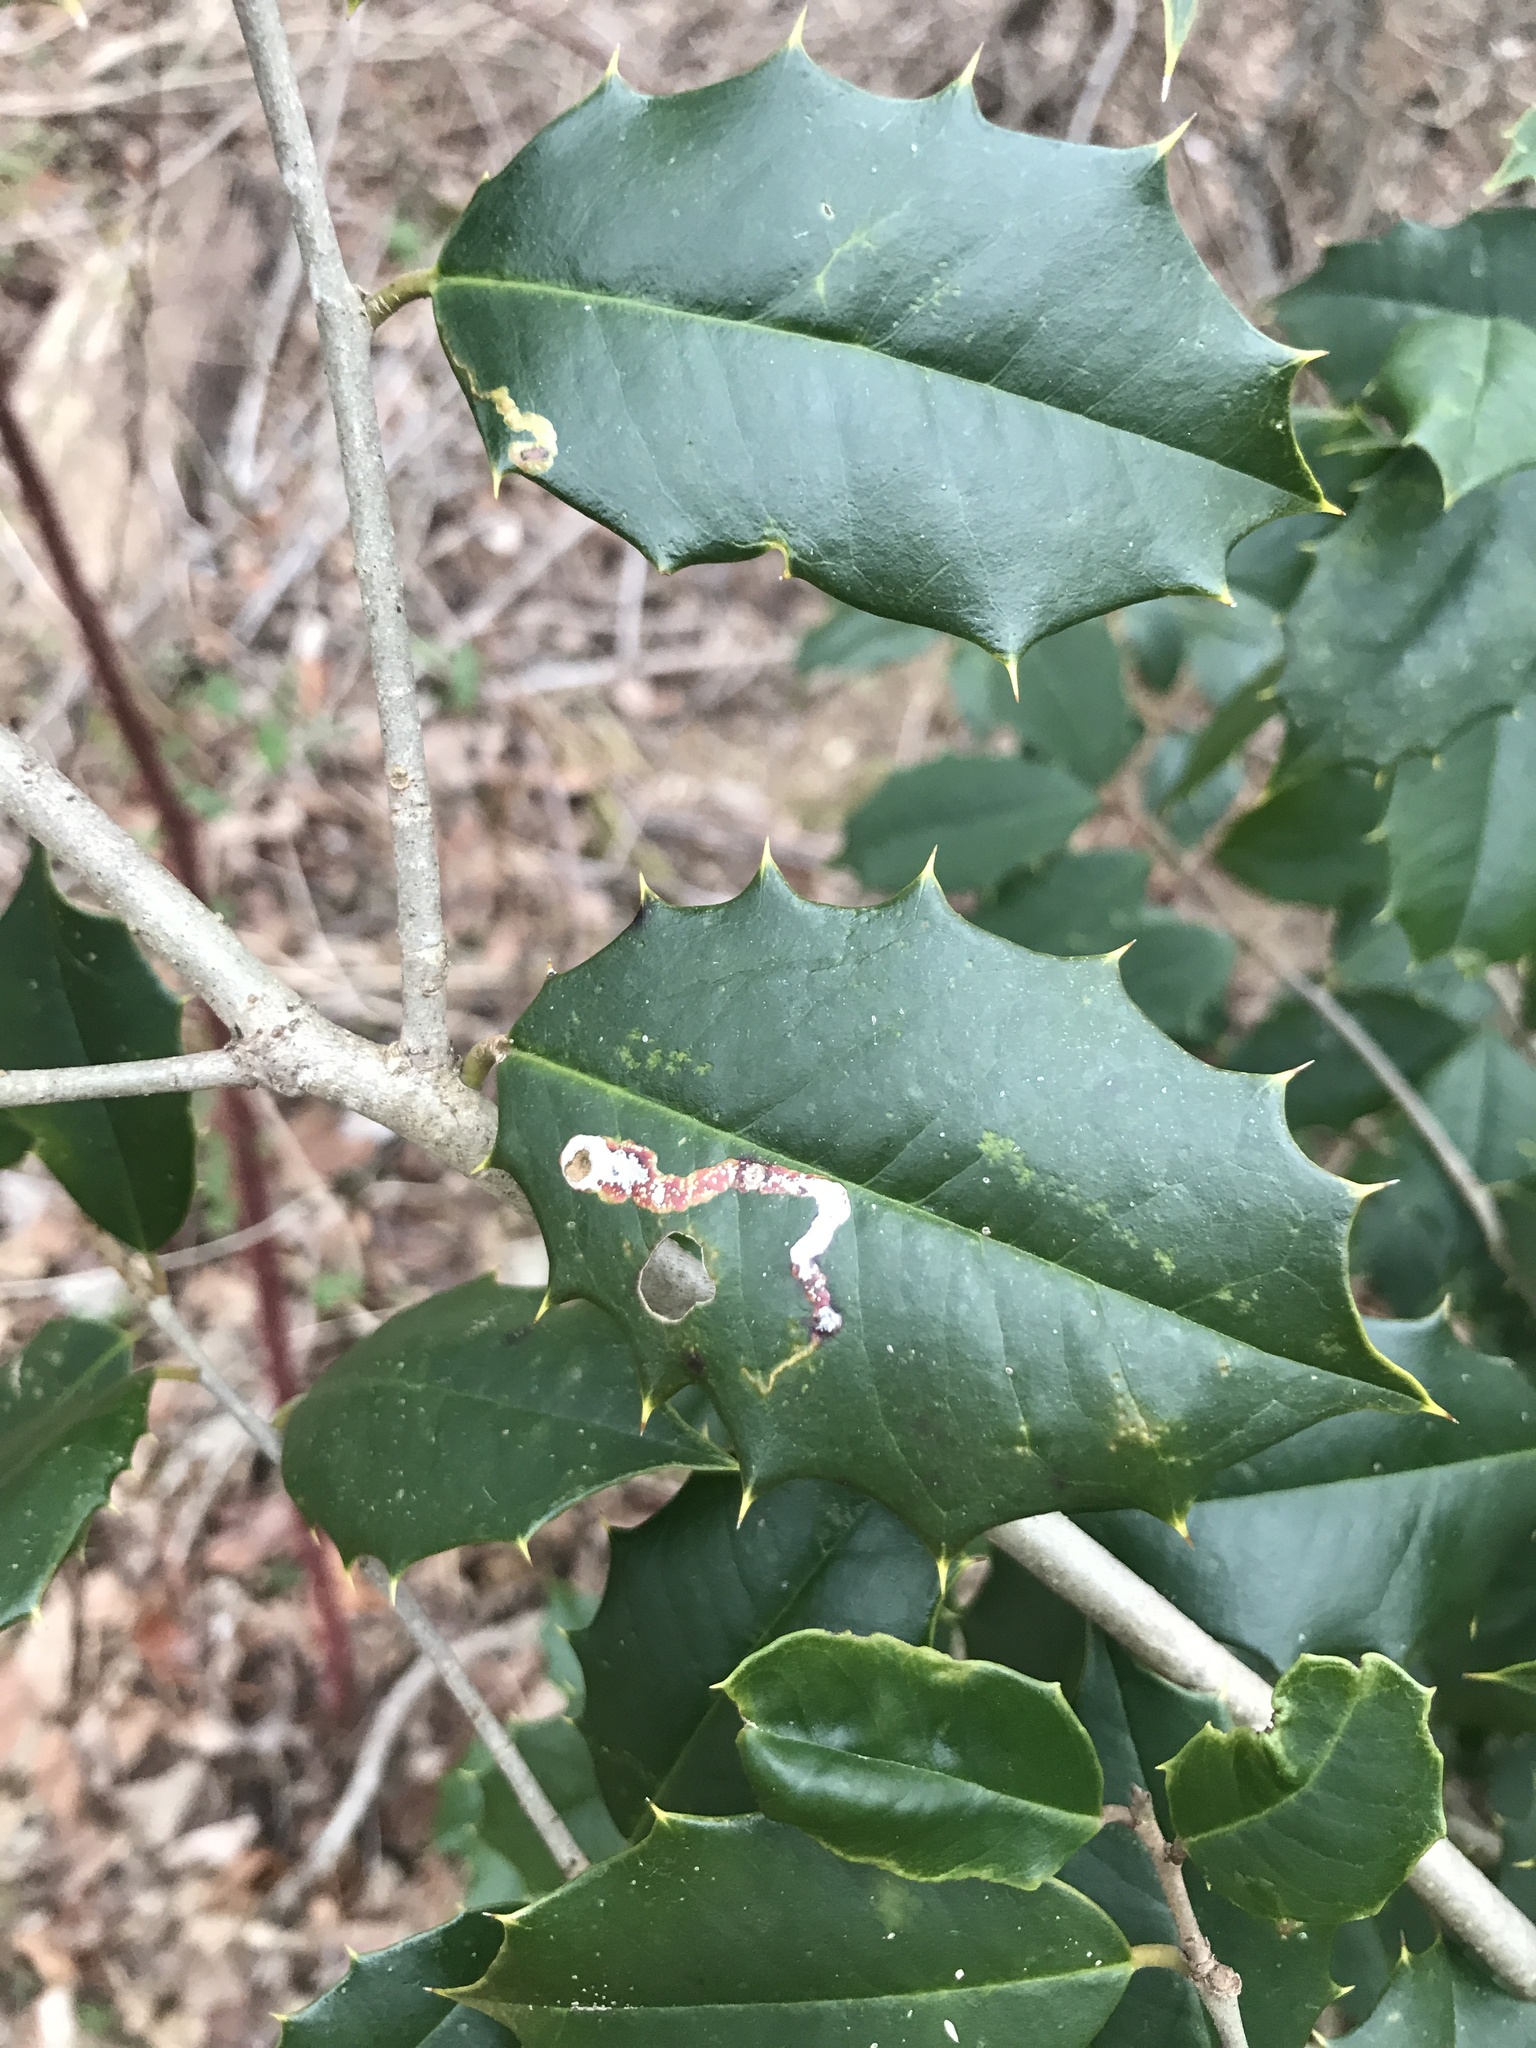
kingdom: Animalia
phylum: Arthropoda
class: Insecta
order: Diptera
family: Agromyzidae
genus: Phytomyza
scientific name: Phytomyza ilicicola
